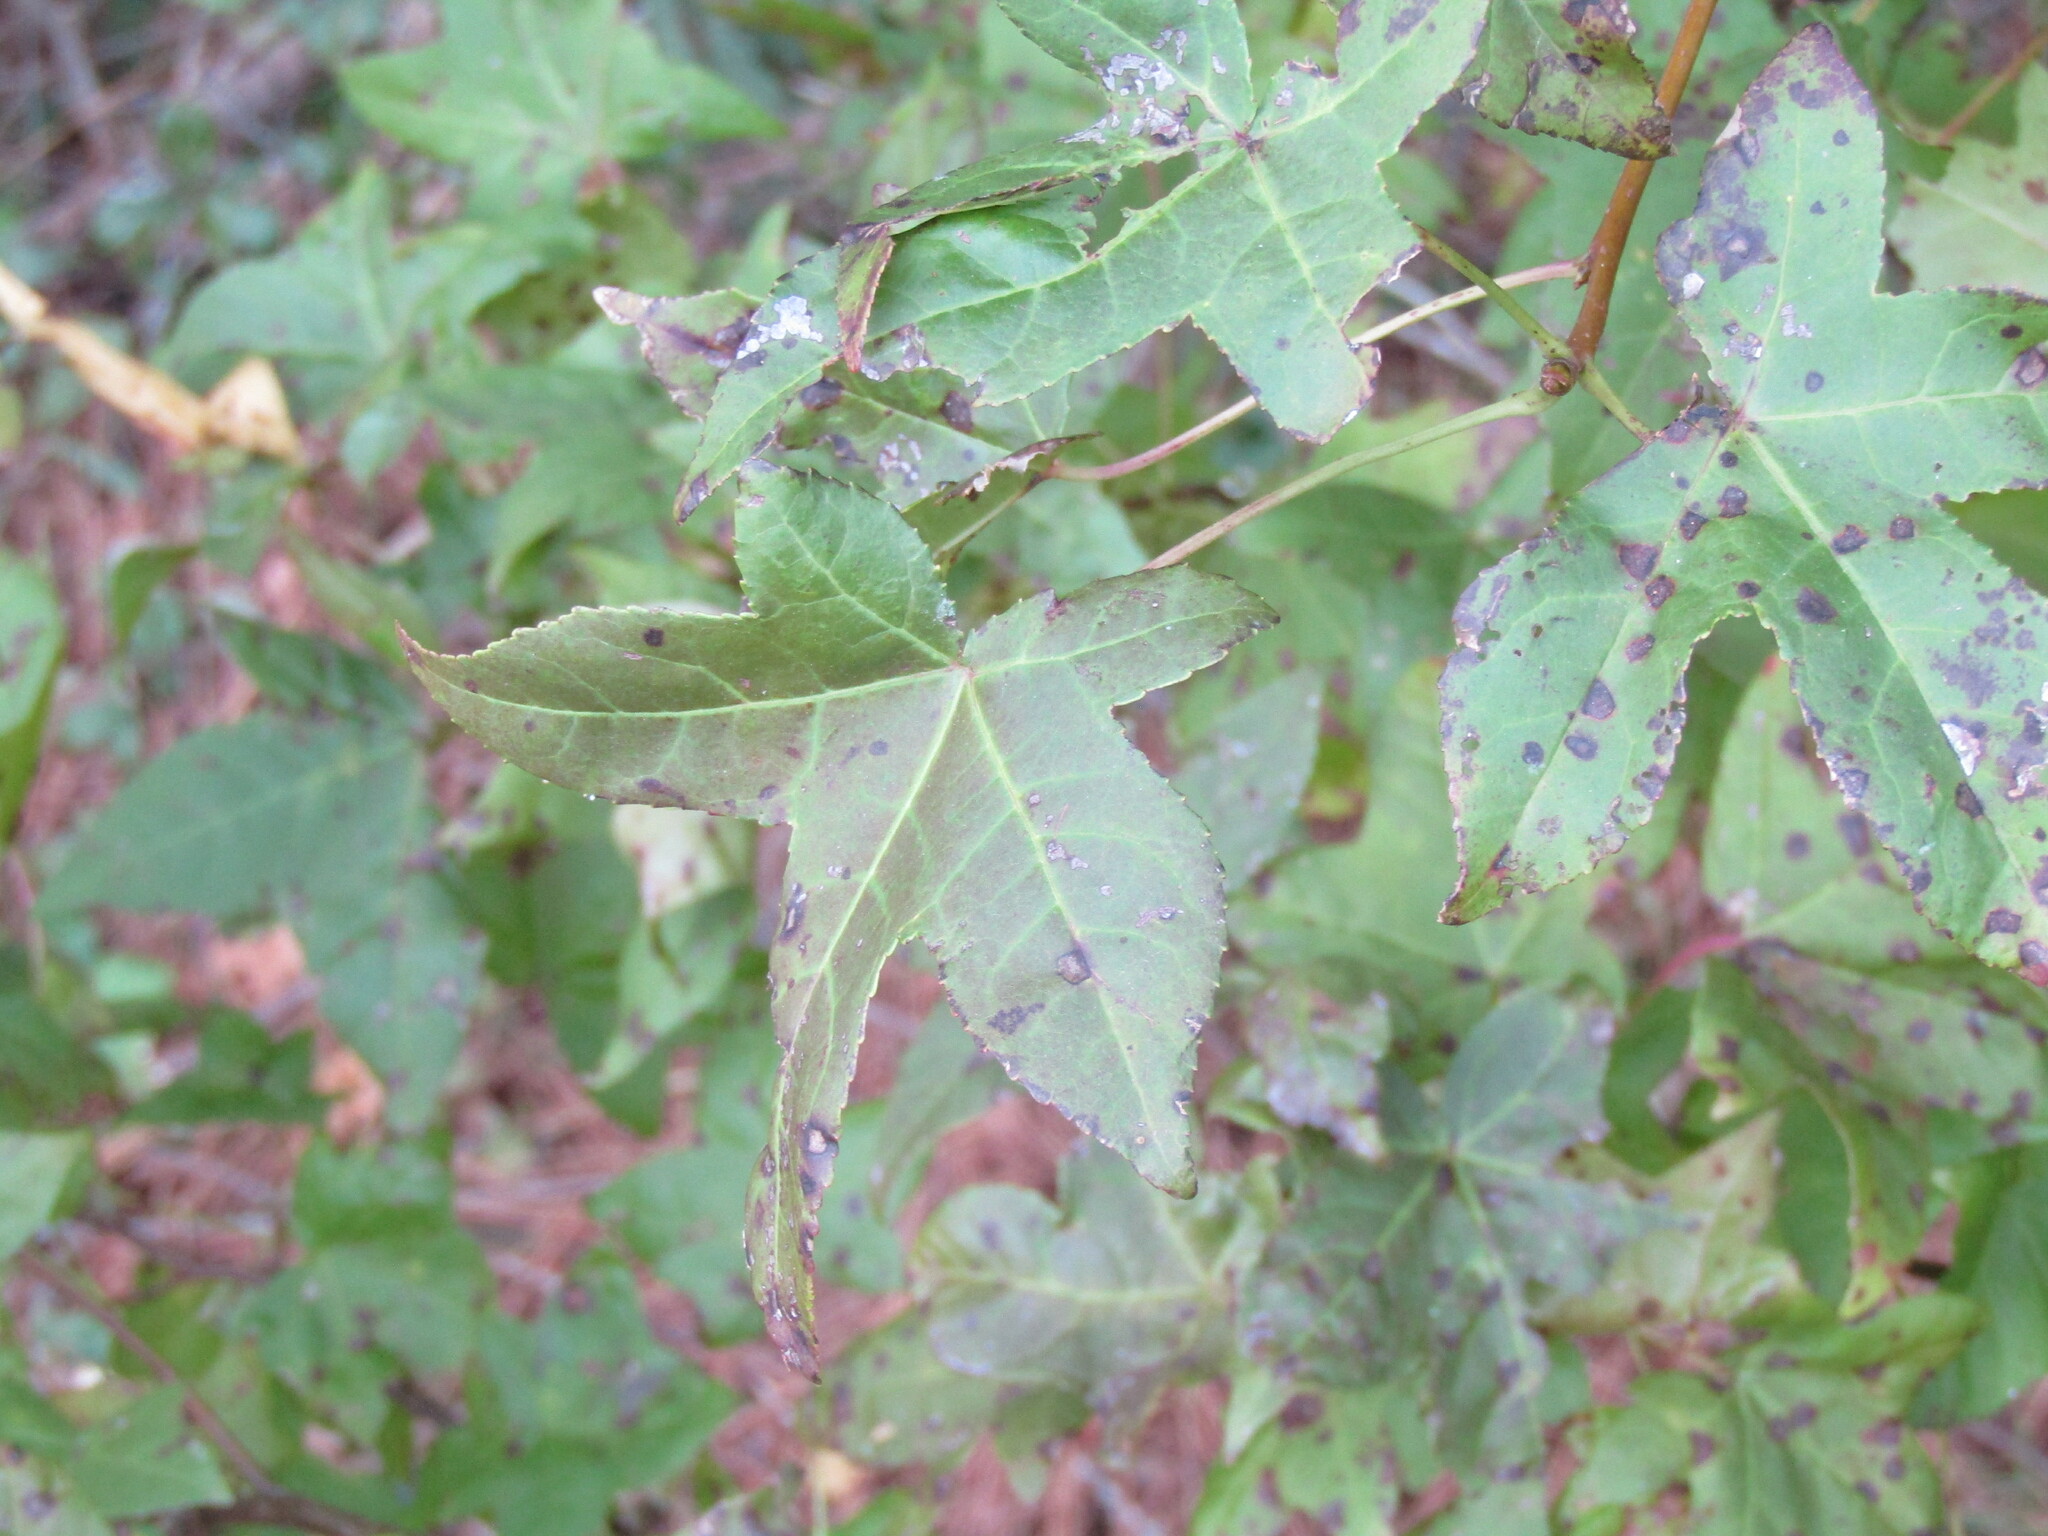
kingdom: Plantae
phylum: Tracheophyta
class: Magnoliopsida
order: Saxifragales
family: Altingiaceae
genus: Liquidambar
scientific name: Liquidambar styraciflua
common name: Sweet gum
